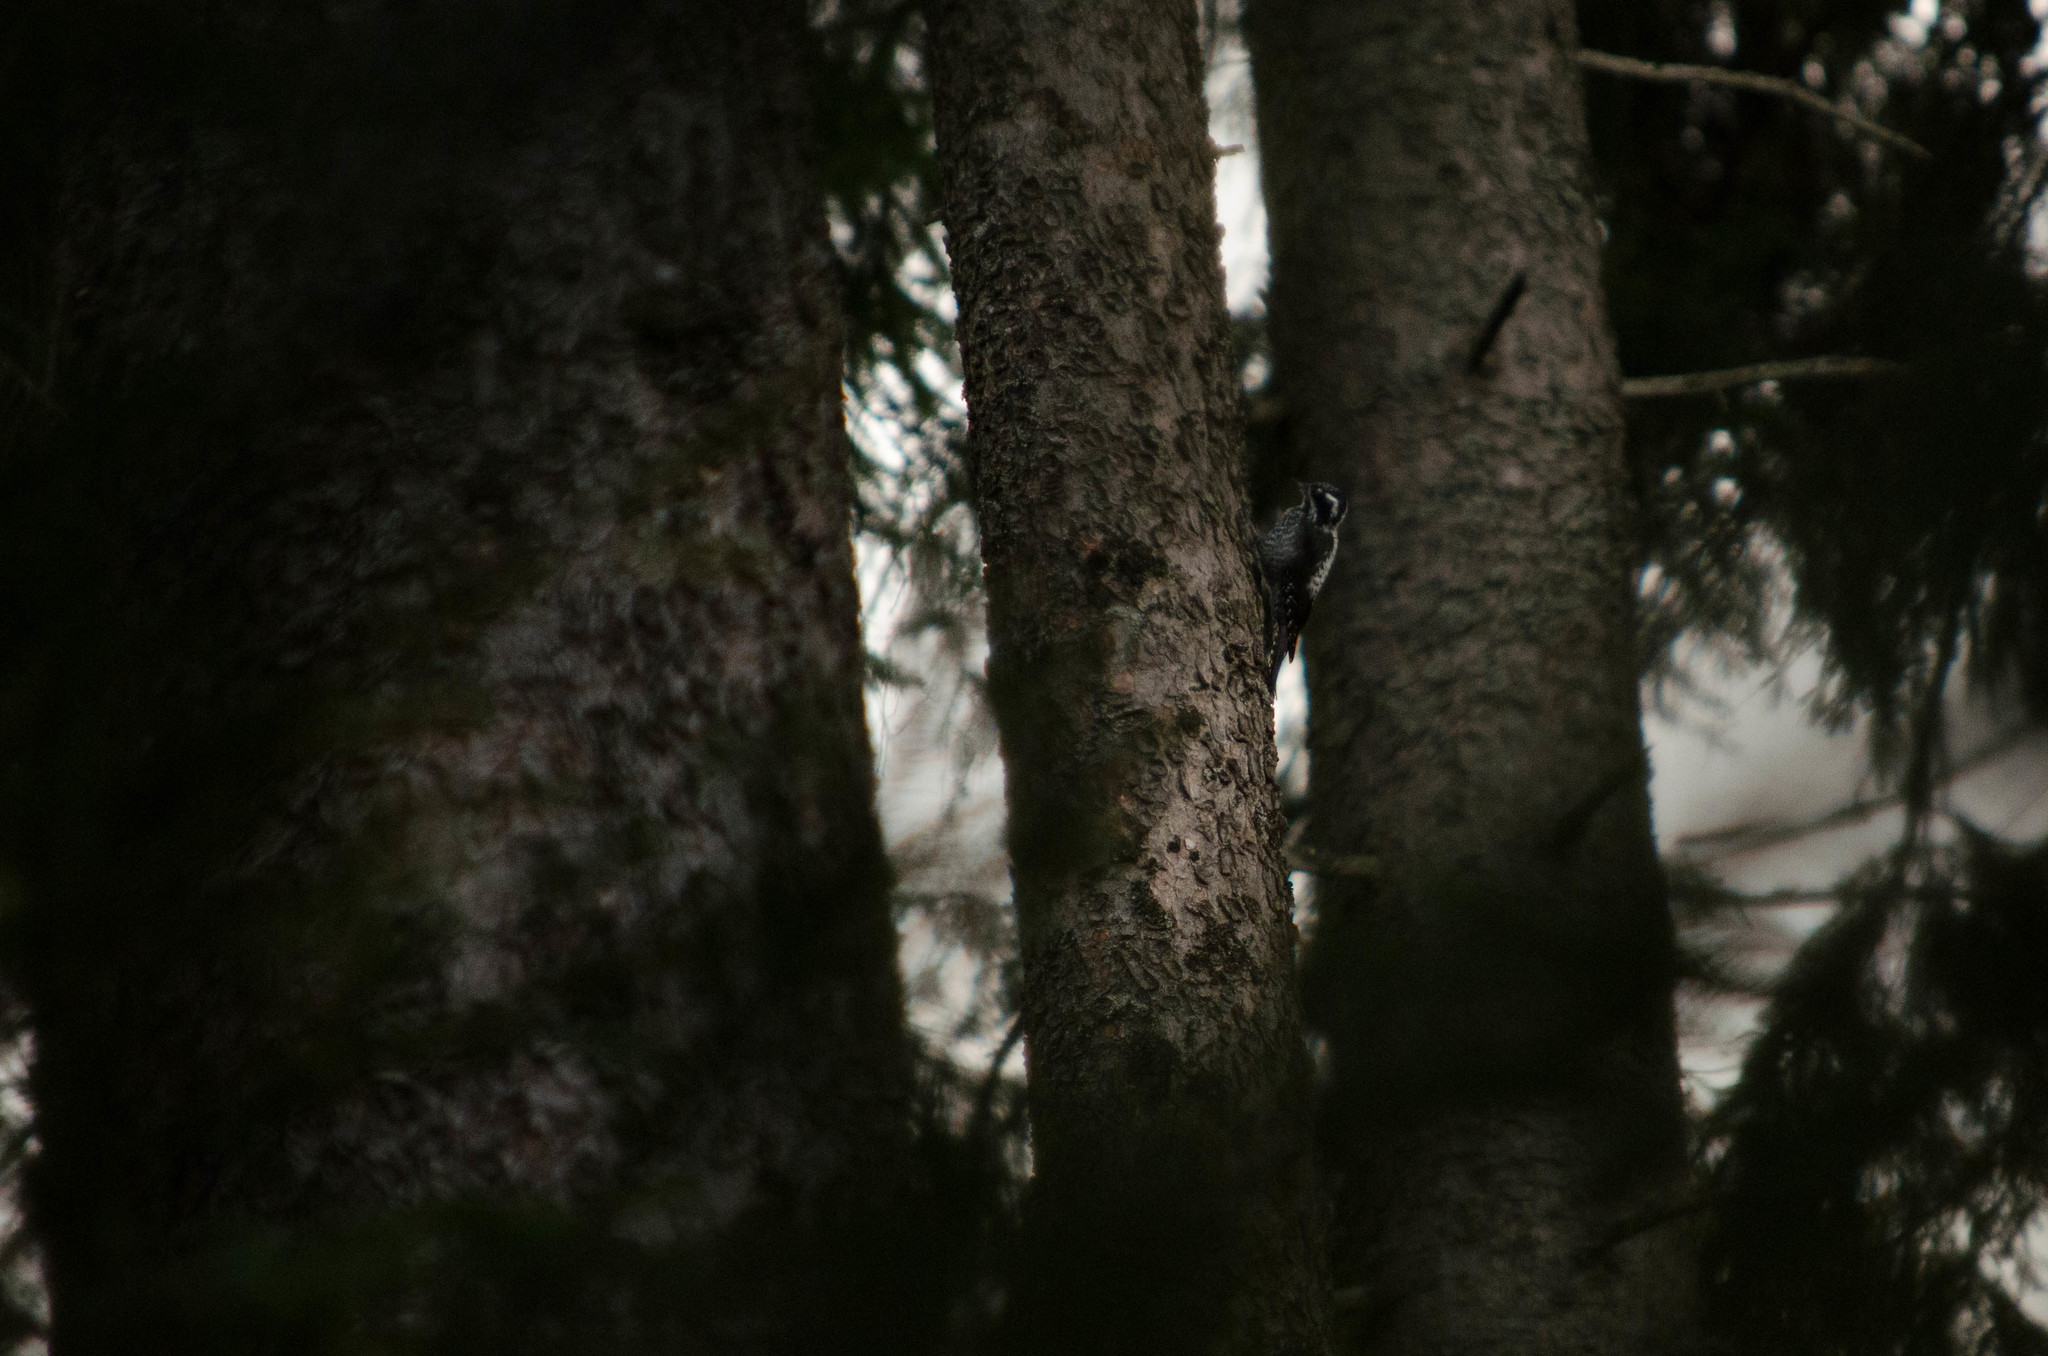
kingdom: Animalia
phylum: Chordata
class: Aves
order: Piciformes
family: Picidae
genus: Picoides
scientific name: Picoides tridactylus
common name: Eurasian three-toed woodpecker
